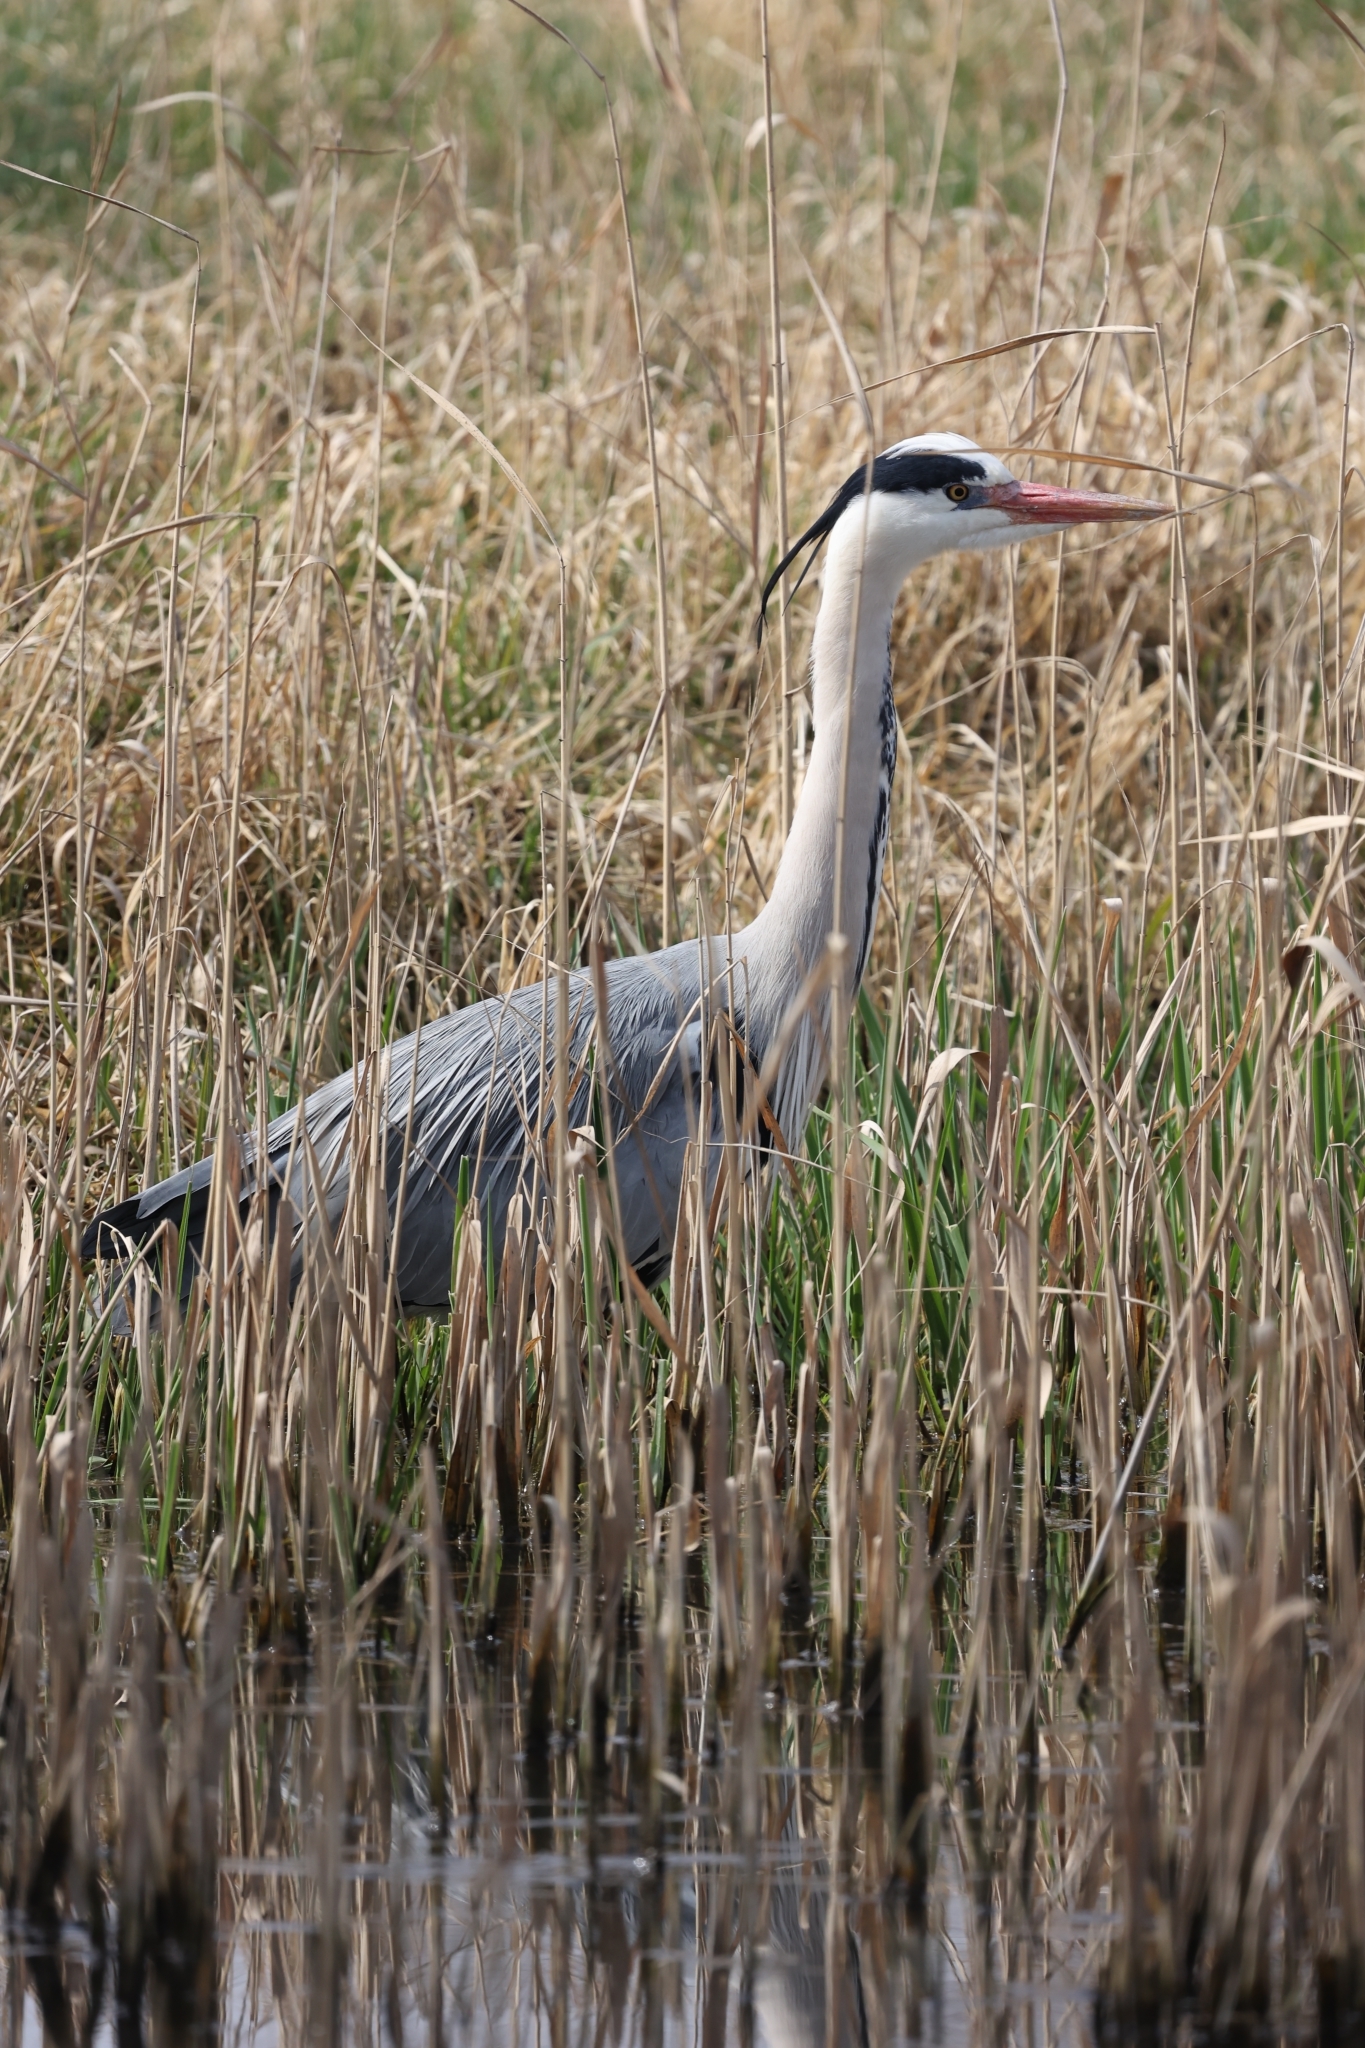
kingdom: Animalia
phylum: Chordata
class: Aves
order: Pelecaniformes
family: Ardeidae
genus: Ardea
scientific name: Ardea cinerea
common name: Grey heron
